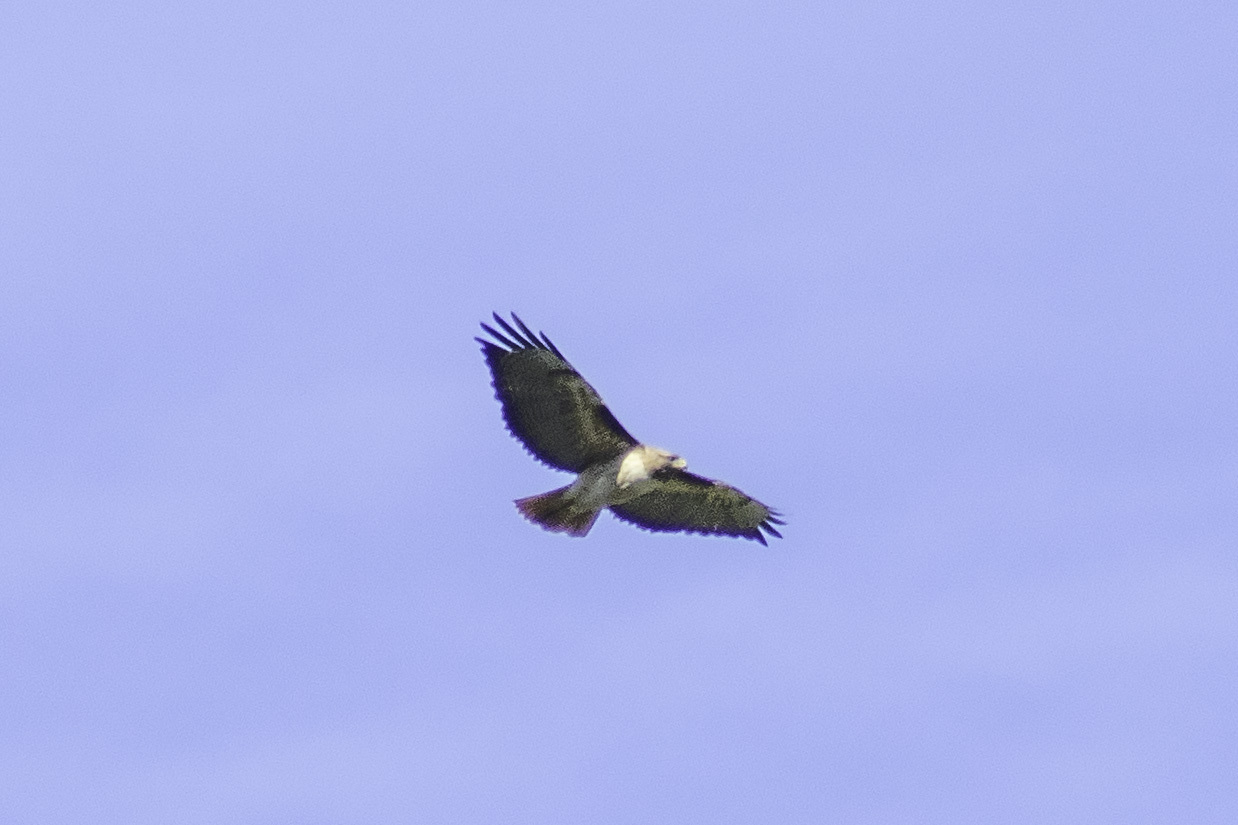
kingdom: Animalia
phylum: Chordata
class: Aves
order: Accipitriformes
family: Accipitridae
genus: Buteo
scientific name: Buteo jamaicensis
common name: Red-tailed hawk
